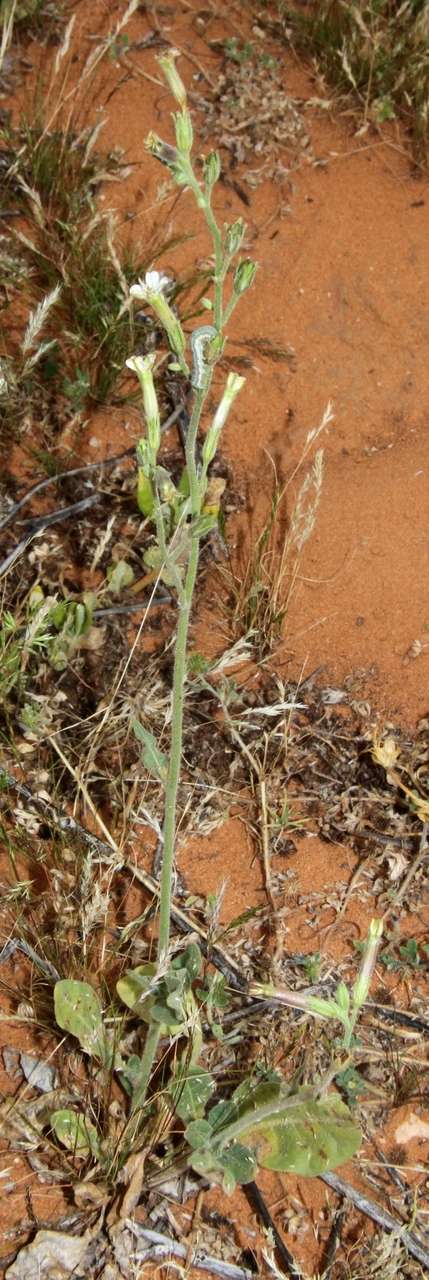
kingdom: Plantae
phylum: Tracheophyta
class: Magnoliopsida
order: Solanales
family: Solanaceae
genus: Nicotiana
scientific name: Nicotiana velutina
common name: Velvet tobacco
